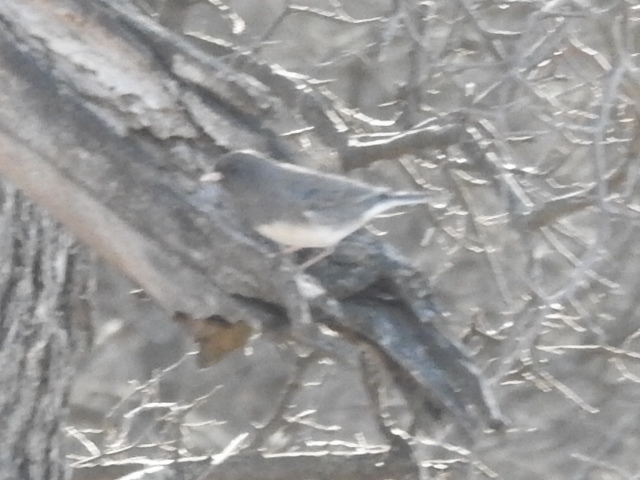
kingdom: Animalia
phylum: Chordata
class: Aves
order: Passeriformes
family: Passerellidae
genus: Junco
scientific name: Junco hyemalis
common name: Dark-eyed junco
